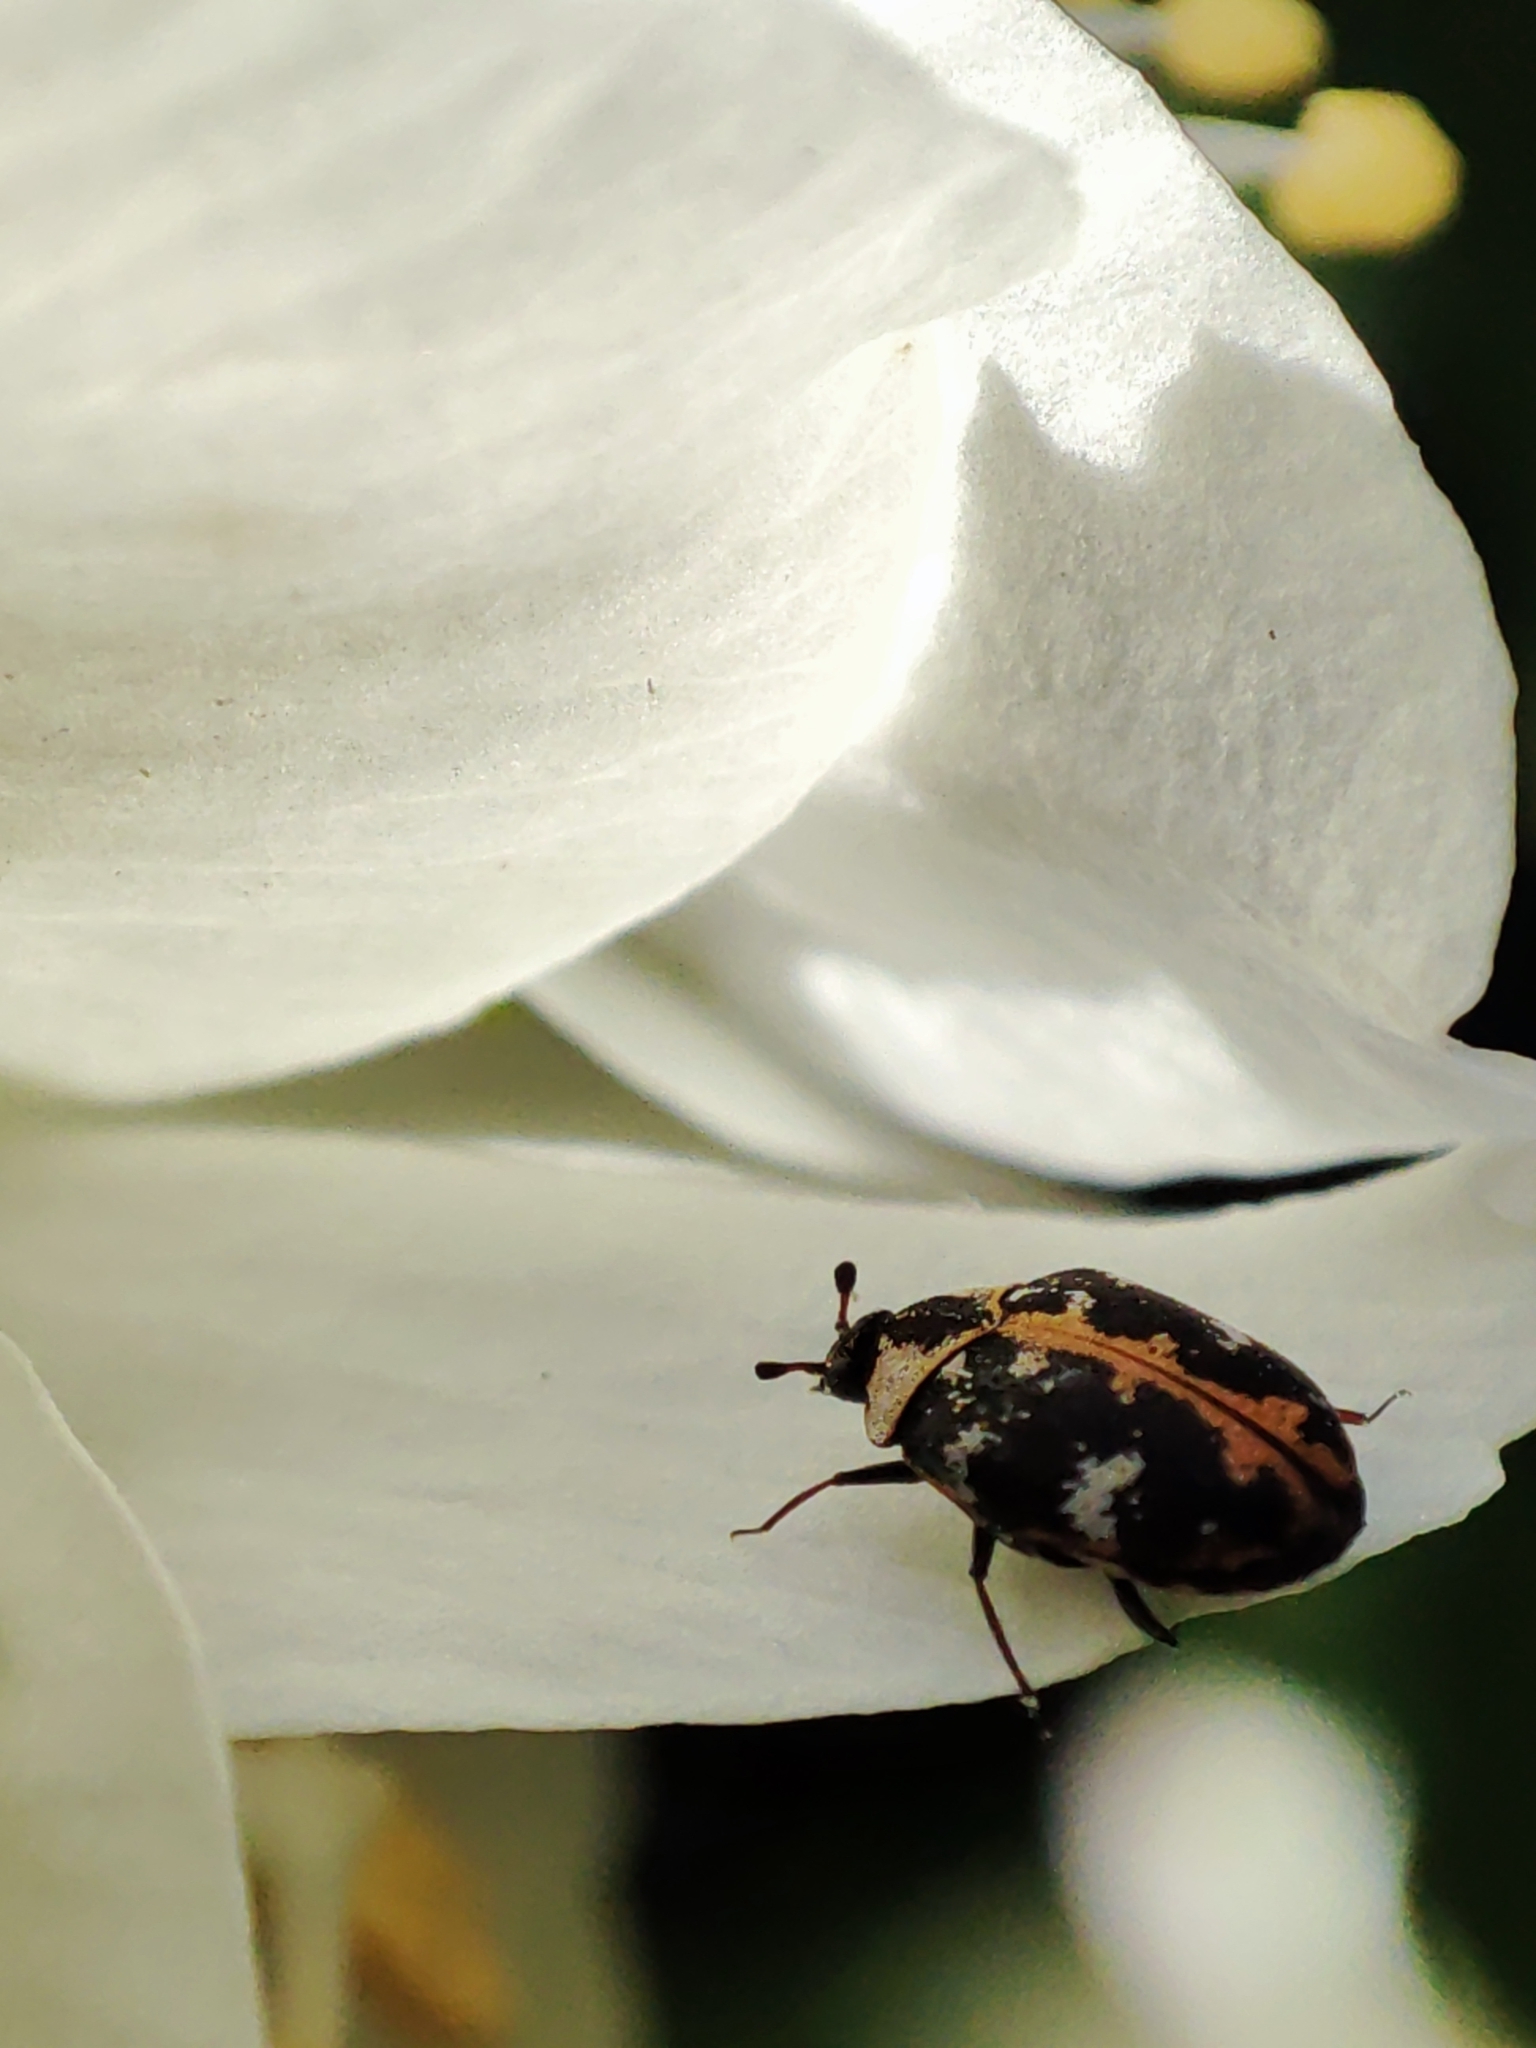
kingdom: Animalia
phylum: Arthropoda
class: Insecta
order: Coleoptera
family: Dermestidae
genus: Anthrenus
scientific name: Anthrenus scrophulariae
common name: Buffalo carpet beetle
